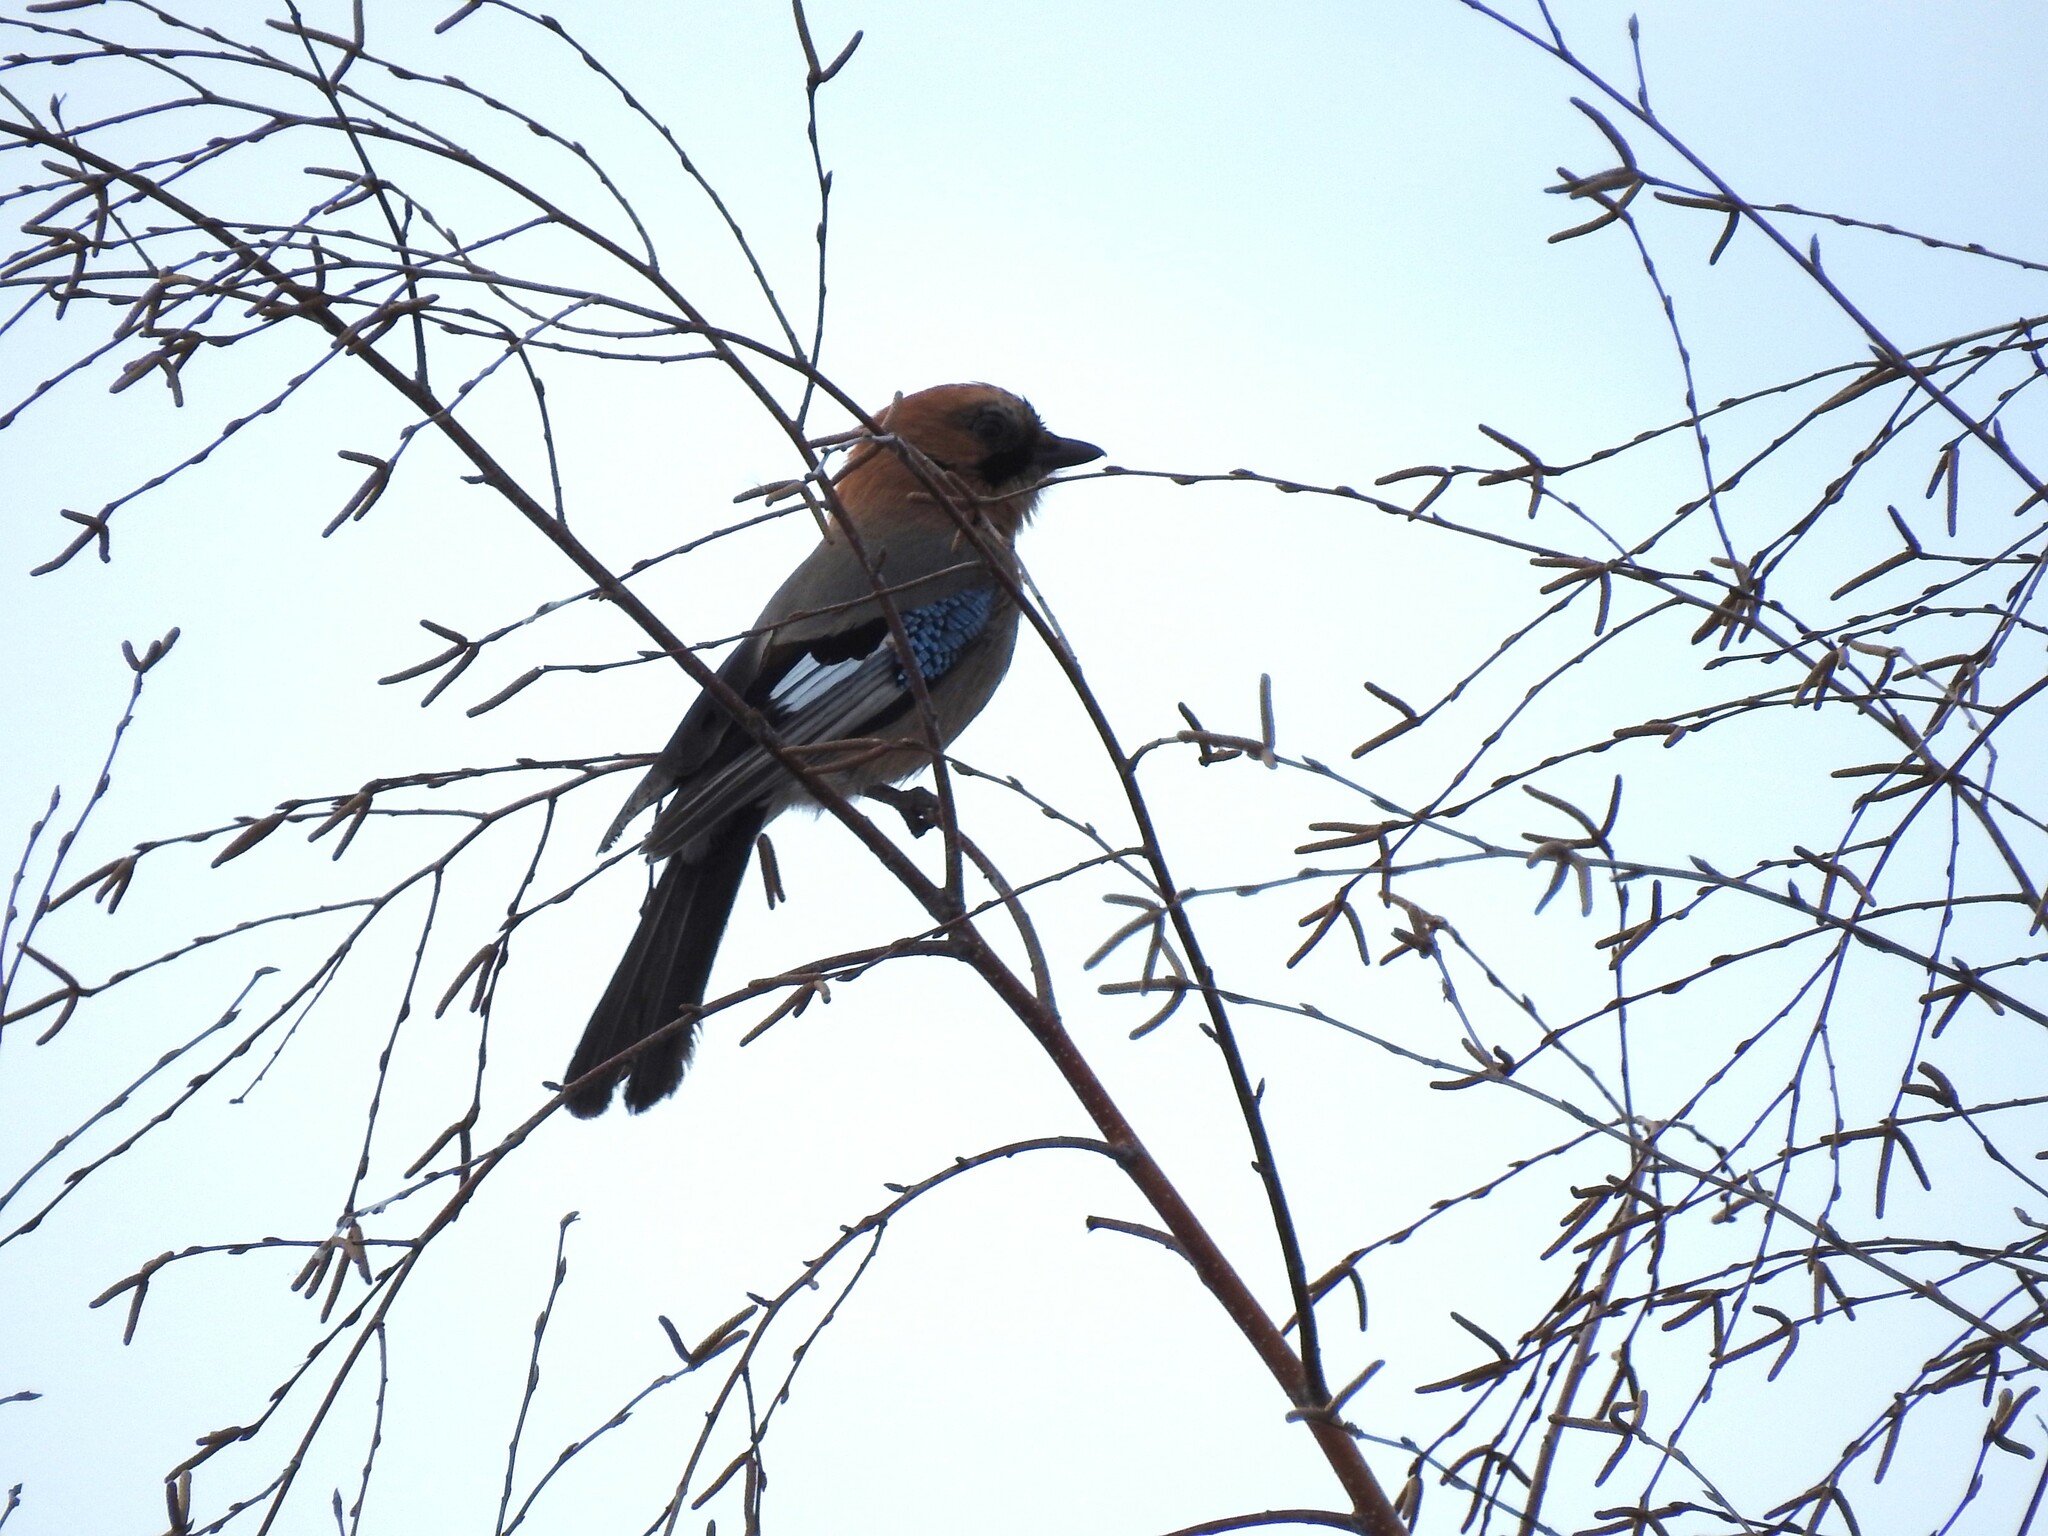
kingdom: Animalia
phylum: Chordata
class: Aves
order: Passeriformes
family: Corvidae
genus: Garrulus
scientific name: Garrulus glandarius
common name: Eurasian jay
